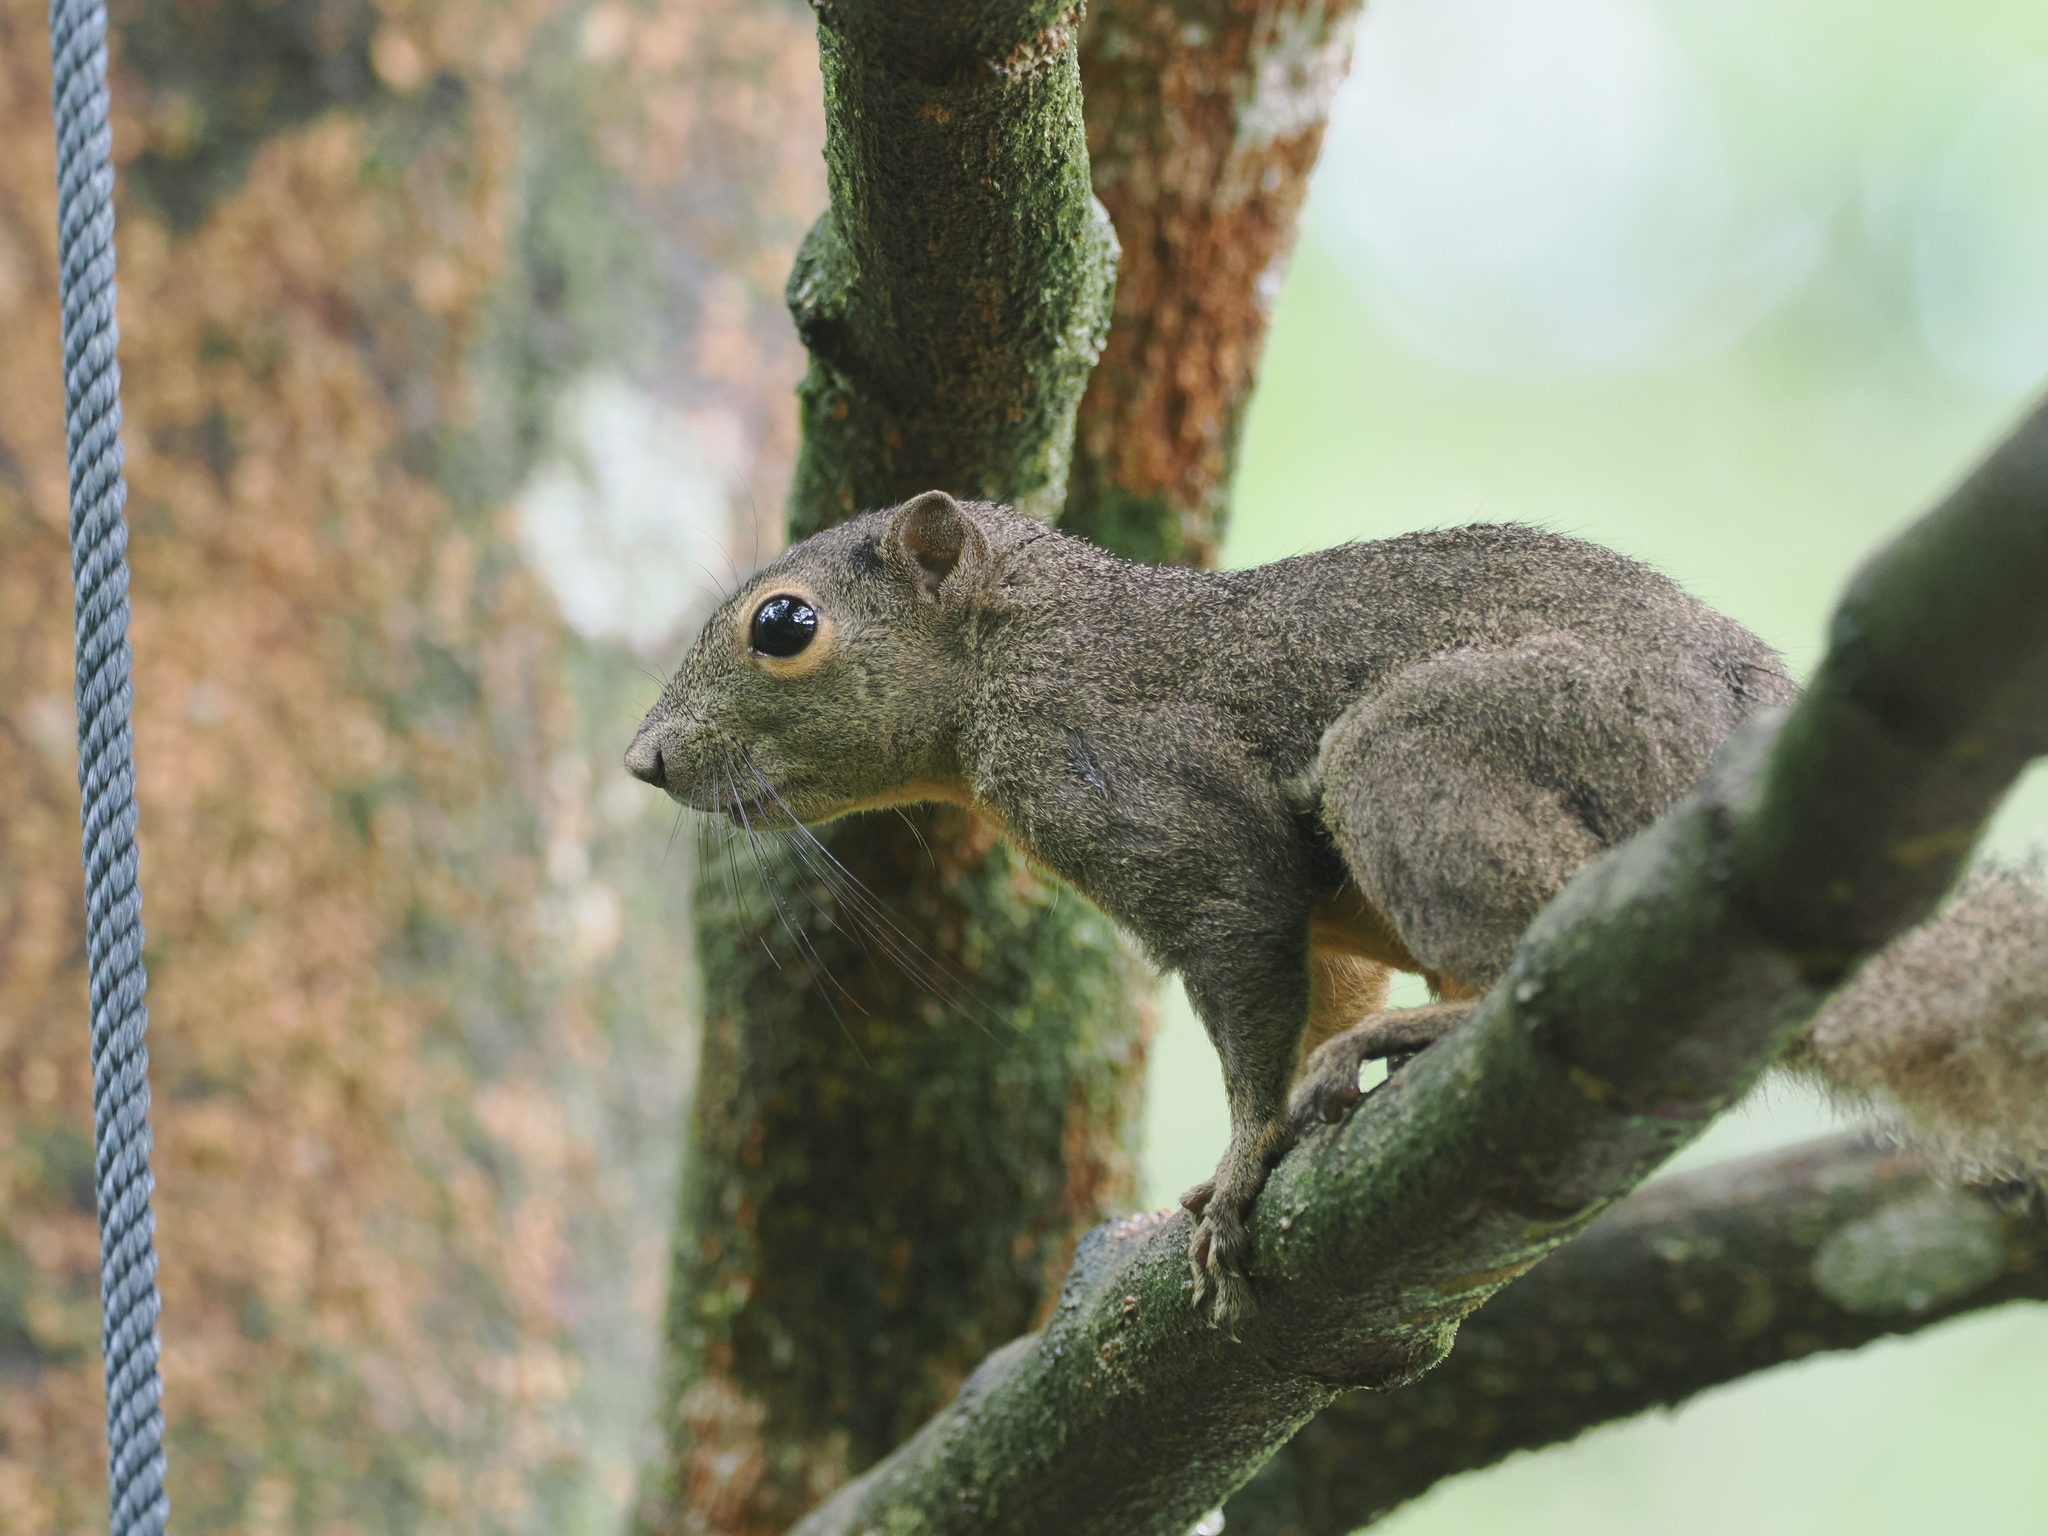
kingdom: Animalia
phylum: Chordata
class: Mammalia
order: Rodentia
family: Sciuridae
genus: Callosciurus
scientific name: Callosciurus notatus
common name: Plantain squirrel
